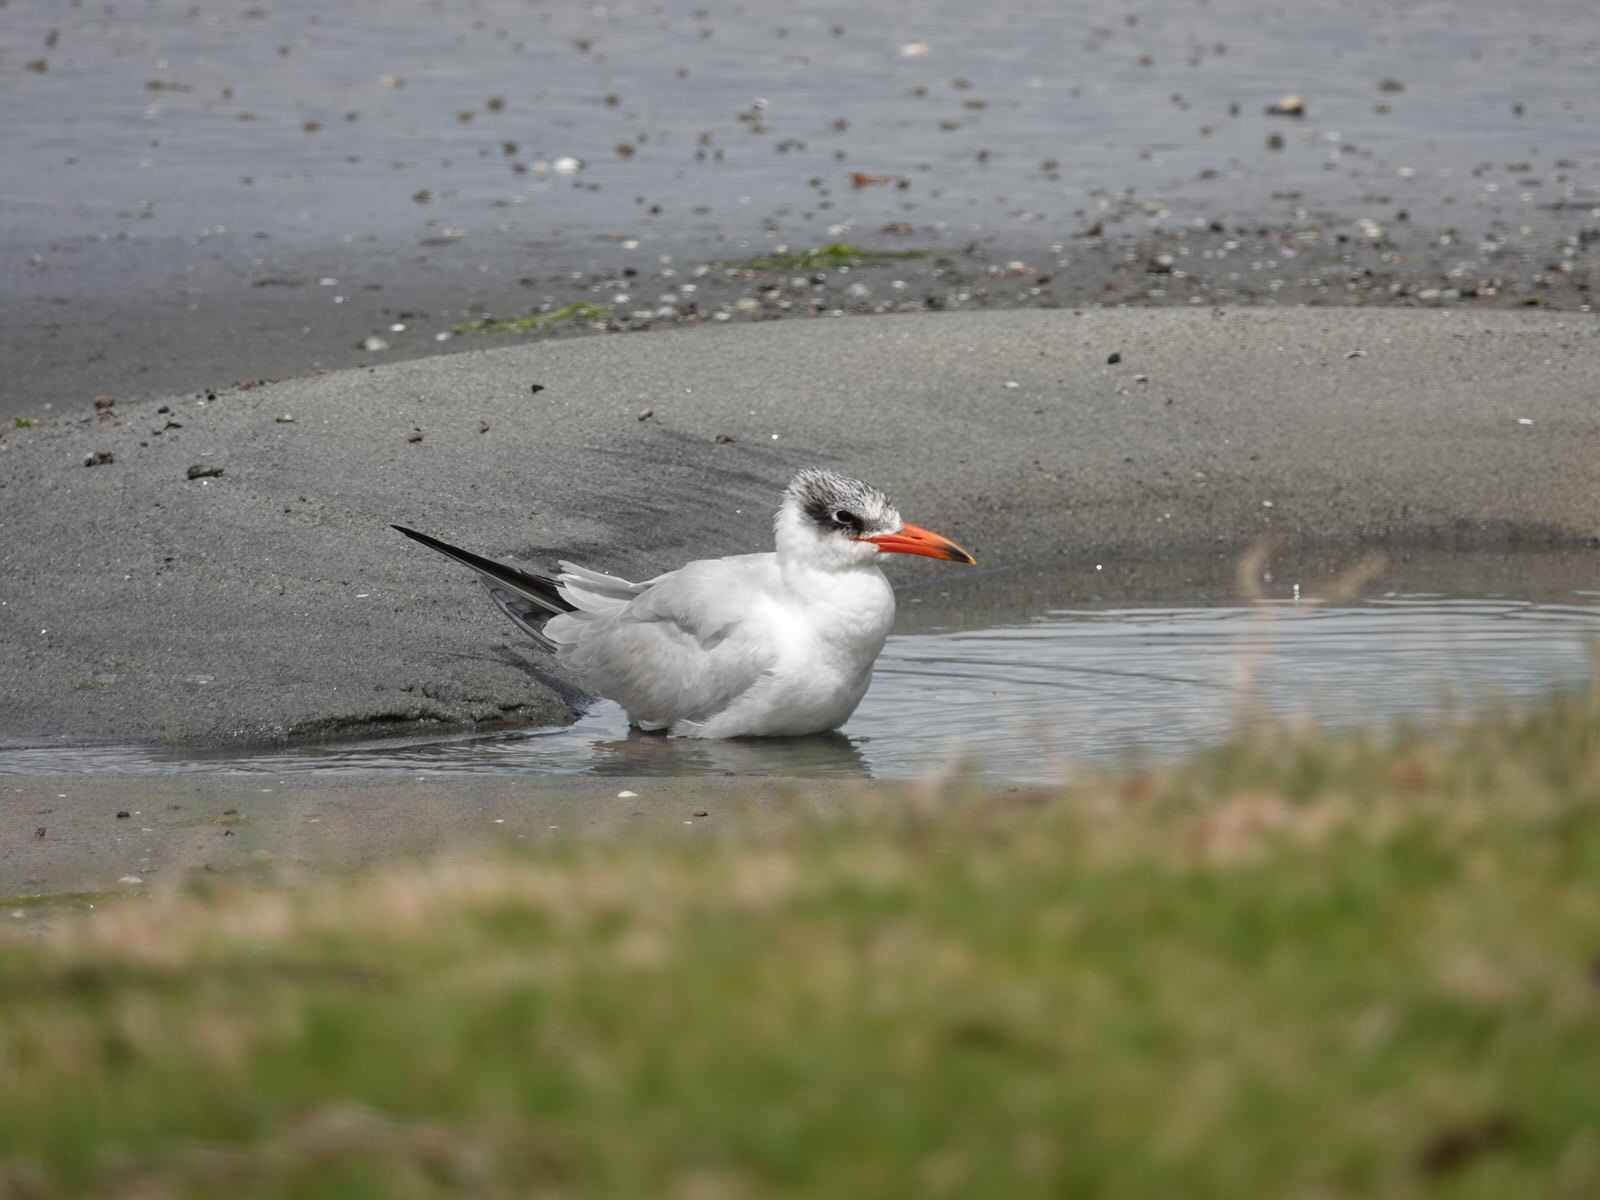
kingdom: Animalia
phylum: Chordata
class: Aves
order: Charadriiformes
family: Laridae
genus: Hydroprogne
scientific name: Hydroprogne caspia
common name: Caspian tern
